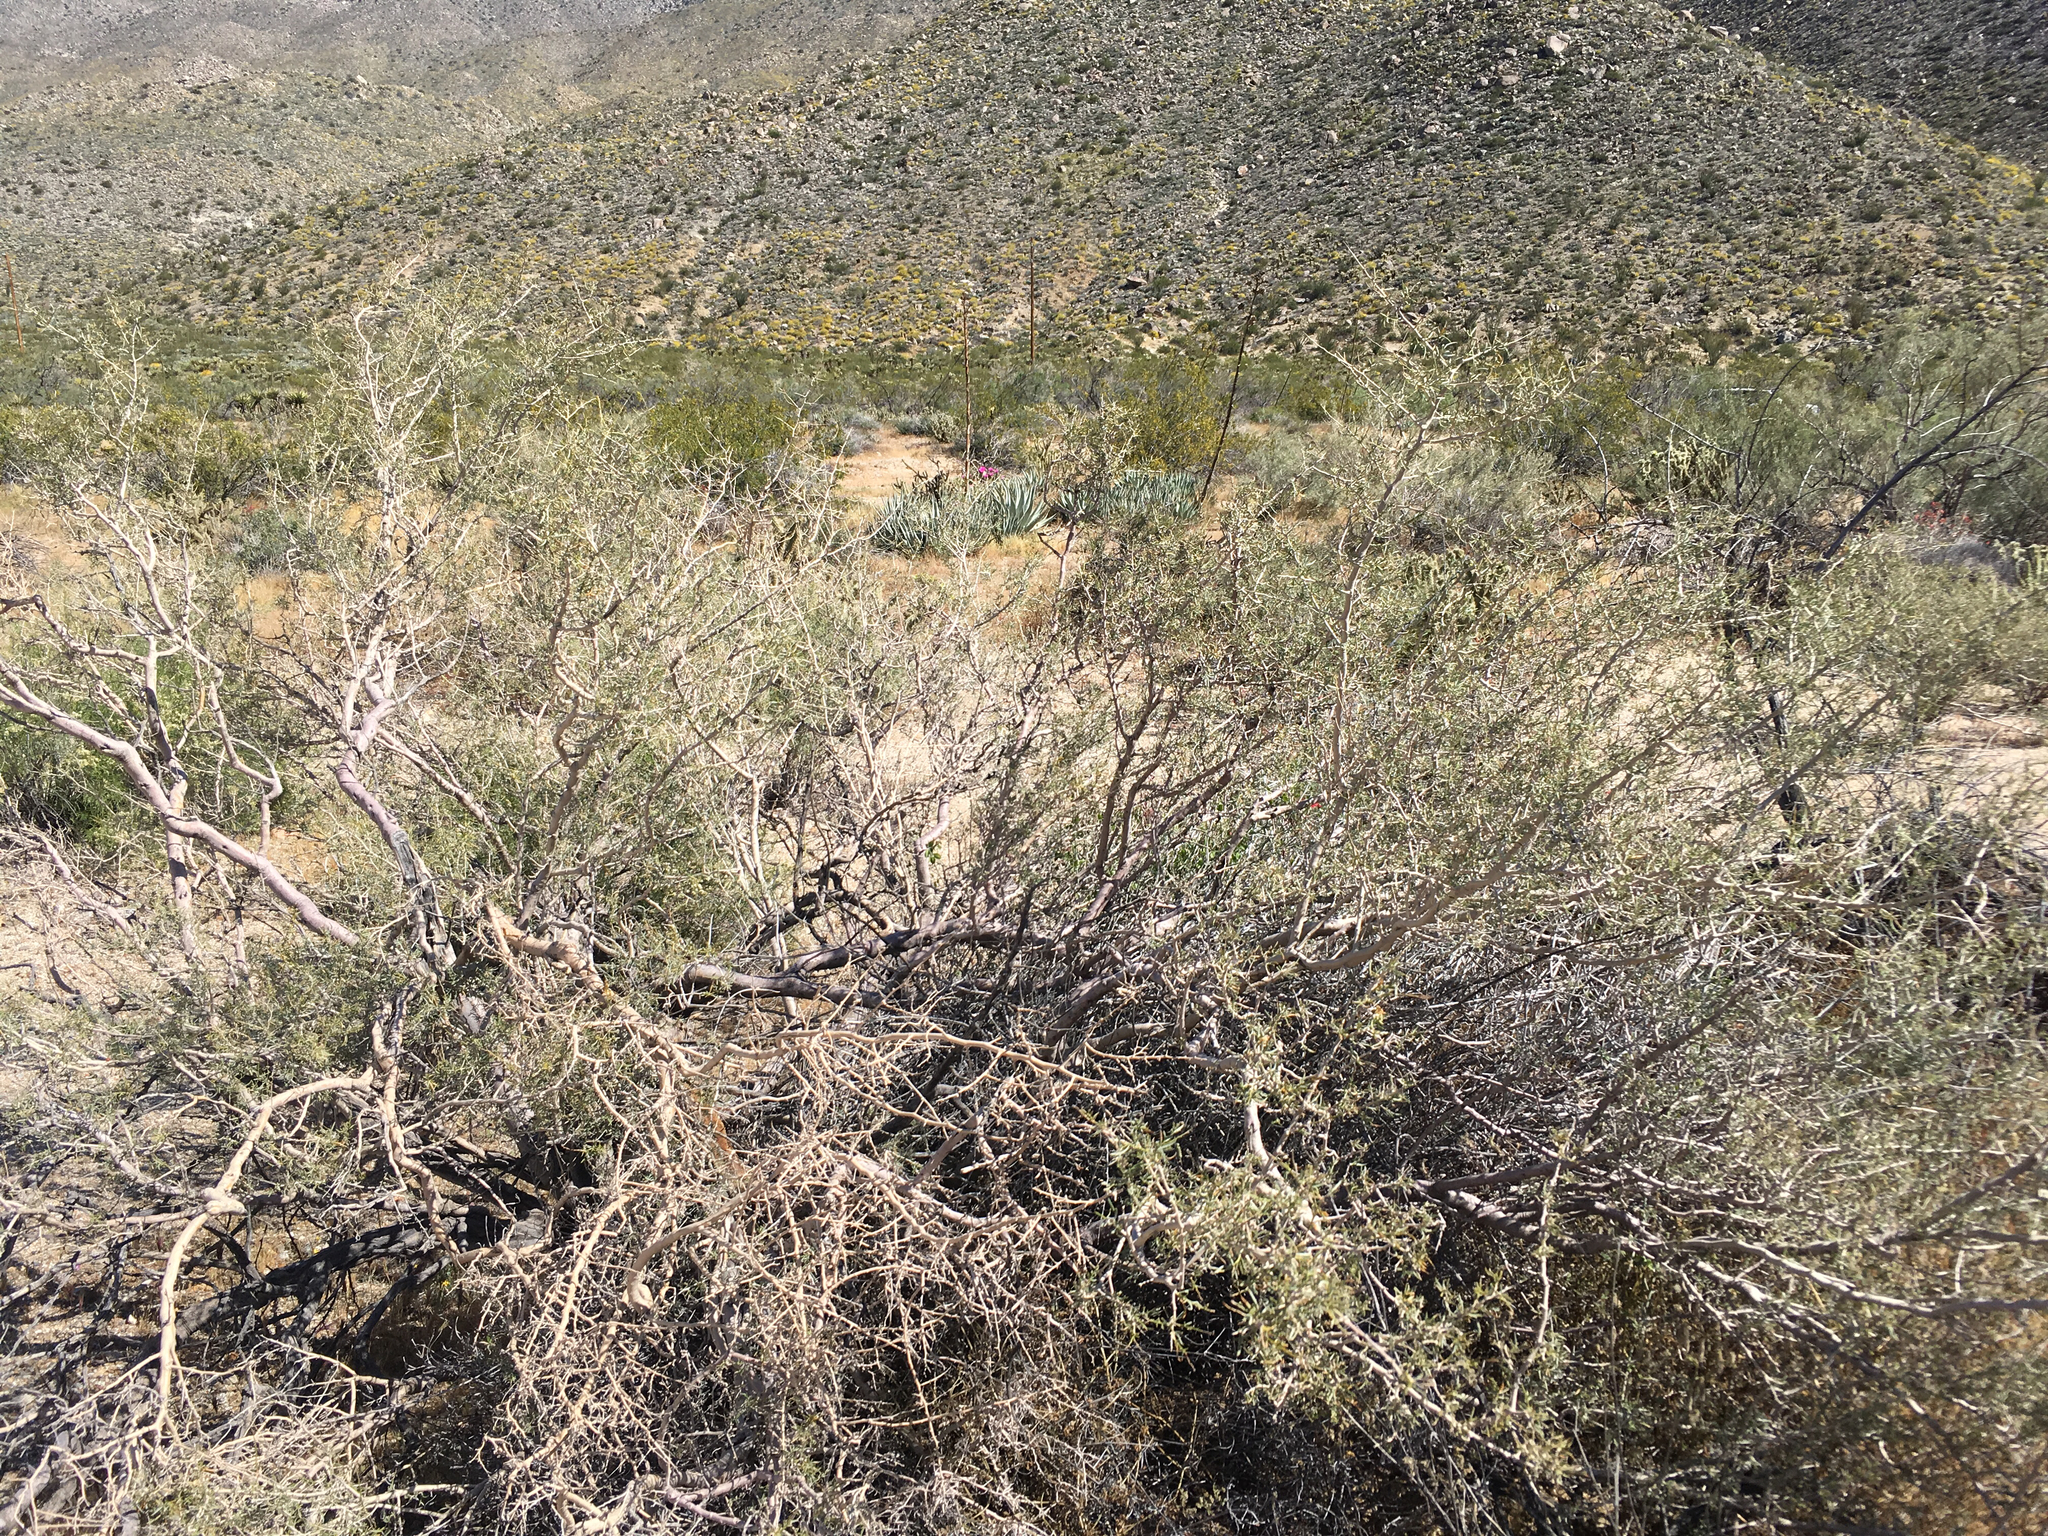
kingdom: Plantae
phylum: Tracheophyta
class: Magnoliopsida
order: Fabales
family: Fabaceae
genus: Psorothamnus
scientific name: Psorothamnus schottii
